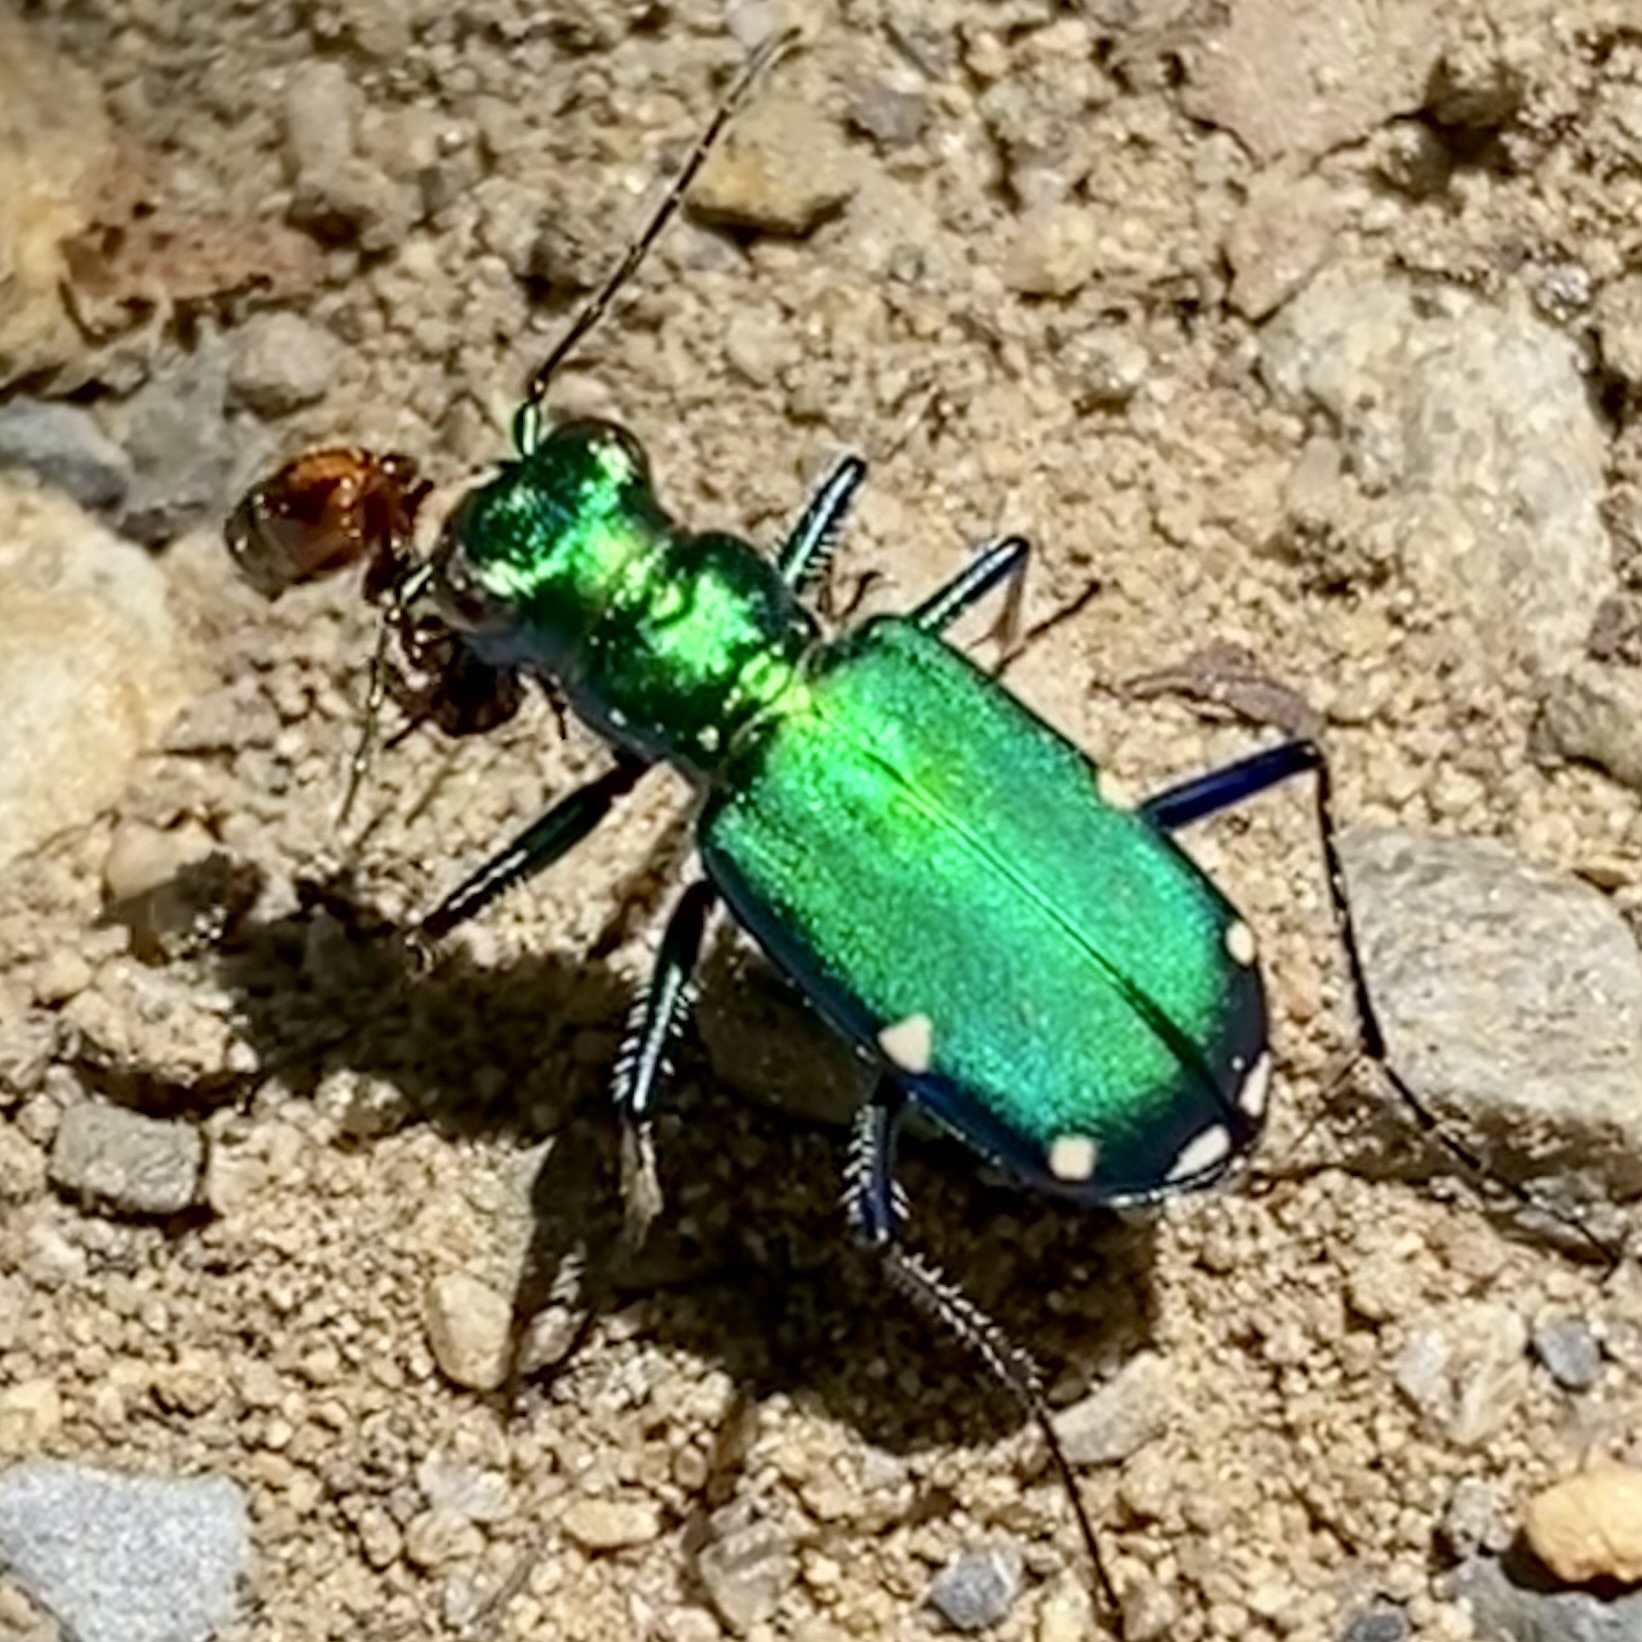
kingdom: Animalia
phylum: Arthropoda
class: Insecta
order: Coleoptera
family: Carabidae
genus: Cicindela
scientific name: Cicindela sexguttata
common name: Six-spotted tiger beetle
